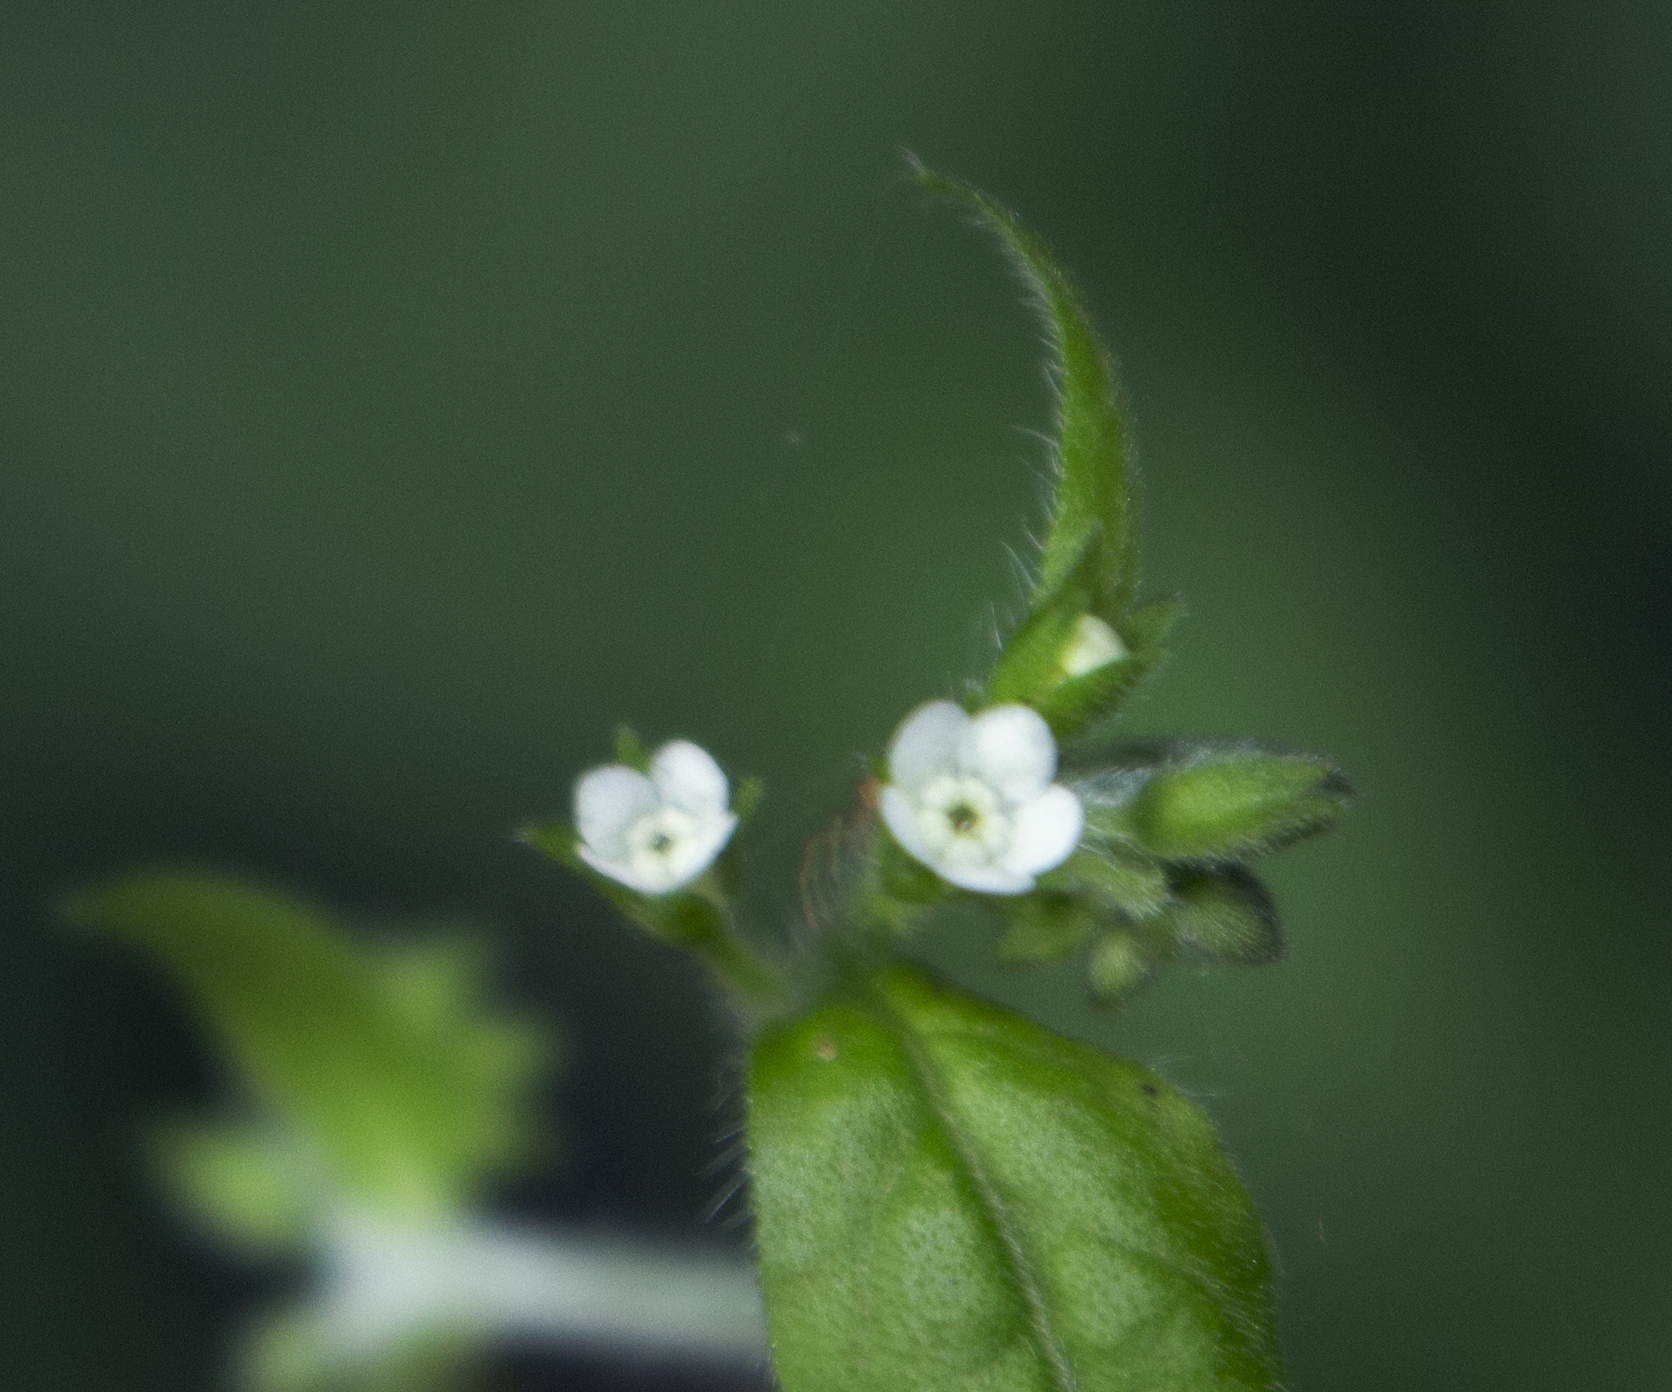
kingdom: Plantae
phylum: Tracheophyta
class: Magnoliopsida
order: Boraginales
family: Boraginaceae
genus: Hackelia
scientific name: Hackelia virginiana
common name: Beggar's-lice
